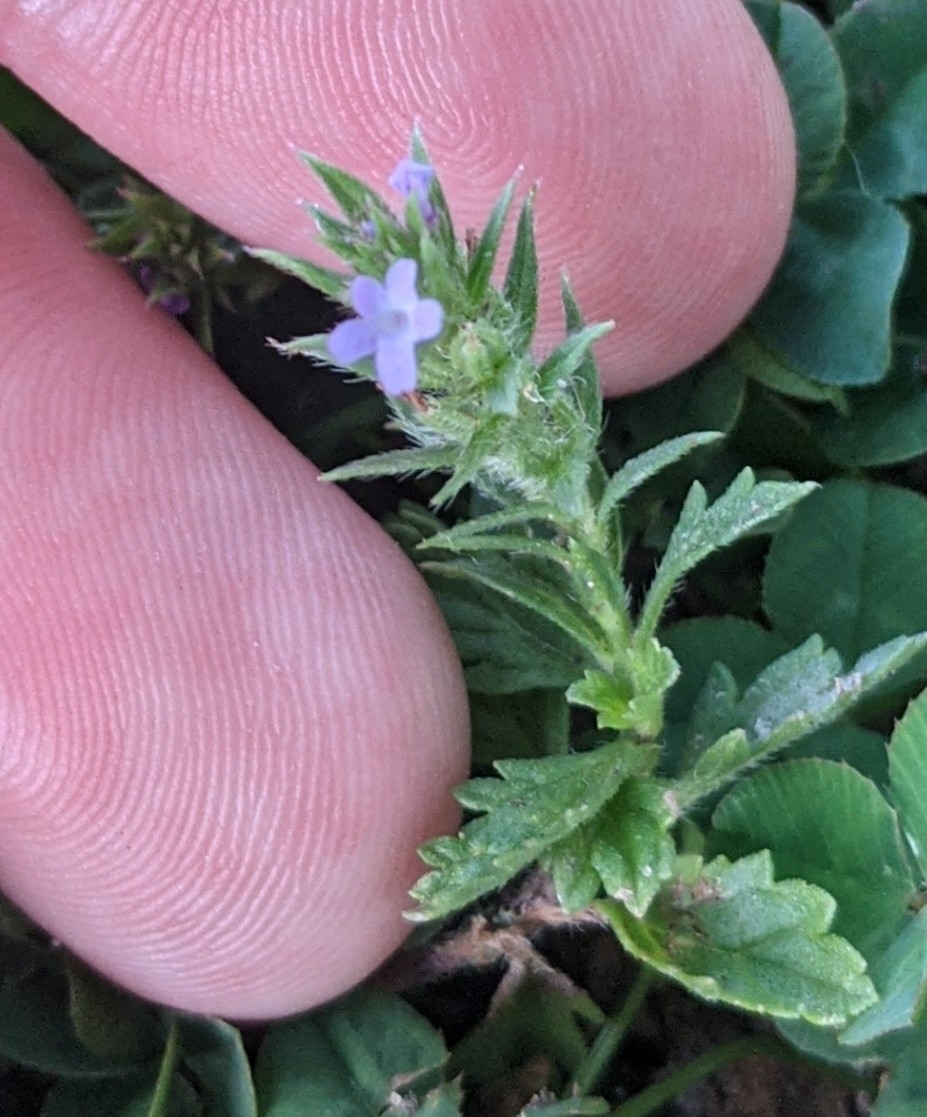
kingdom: Plantae
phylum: Tracheophyta
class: Magnoliopsida
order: Lamiales
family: Verbenaceae
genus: Verbena
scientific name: Verbena bracteata
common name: Bracted vervain
